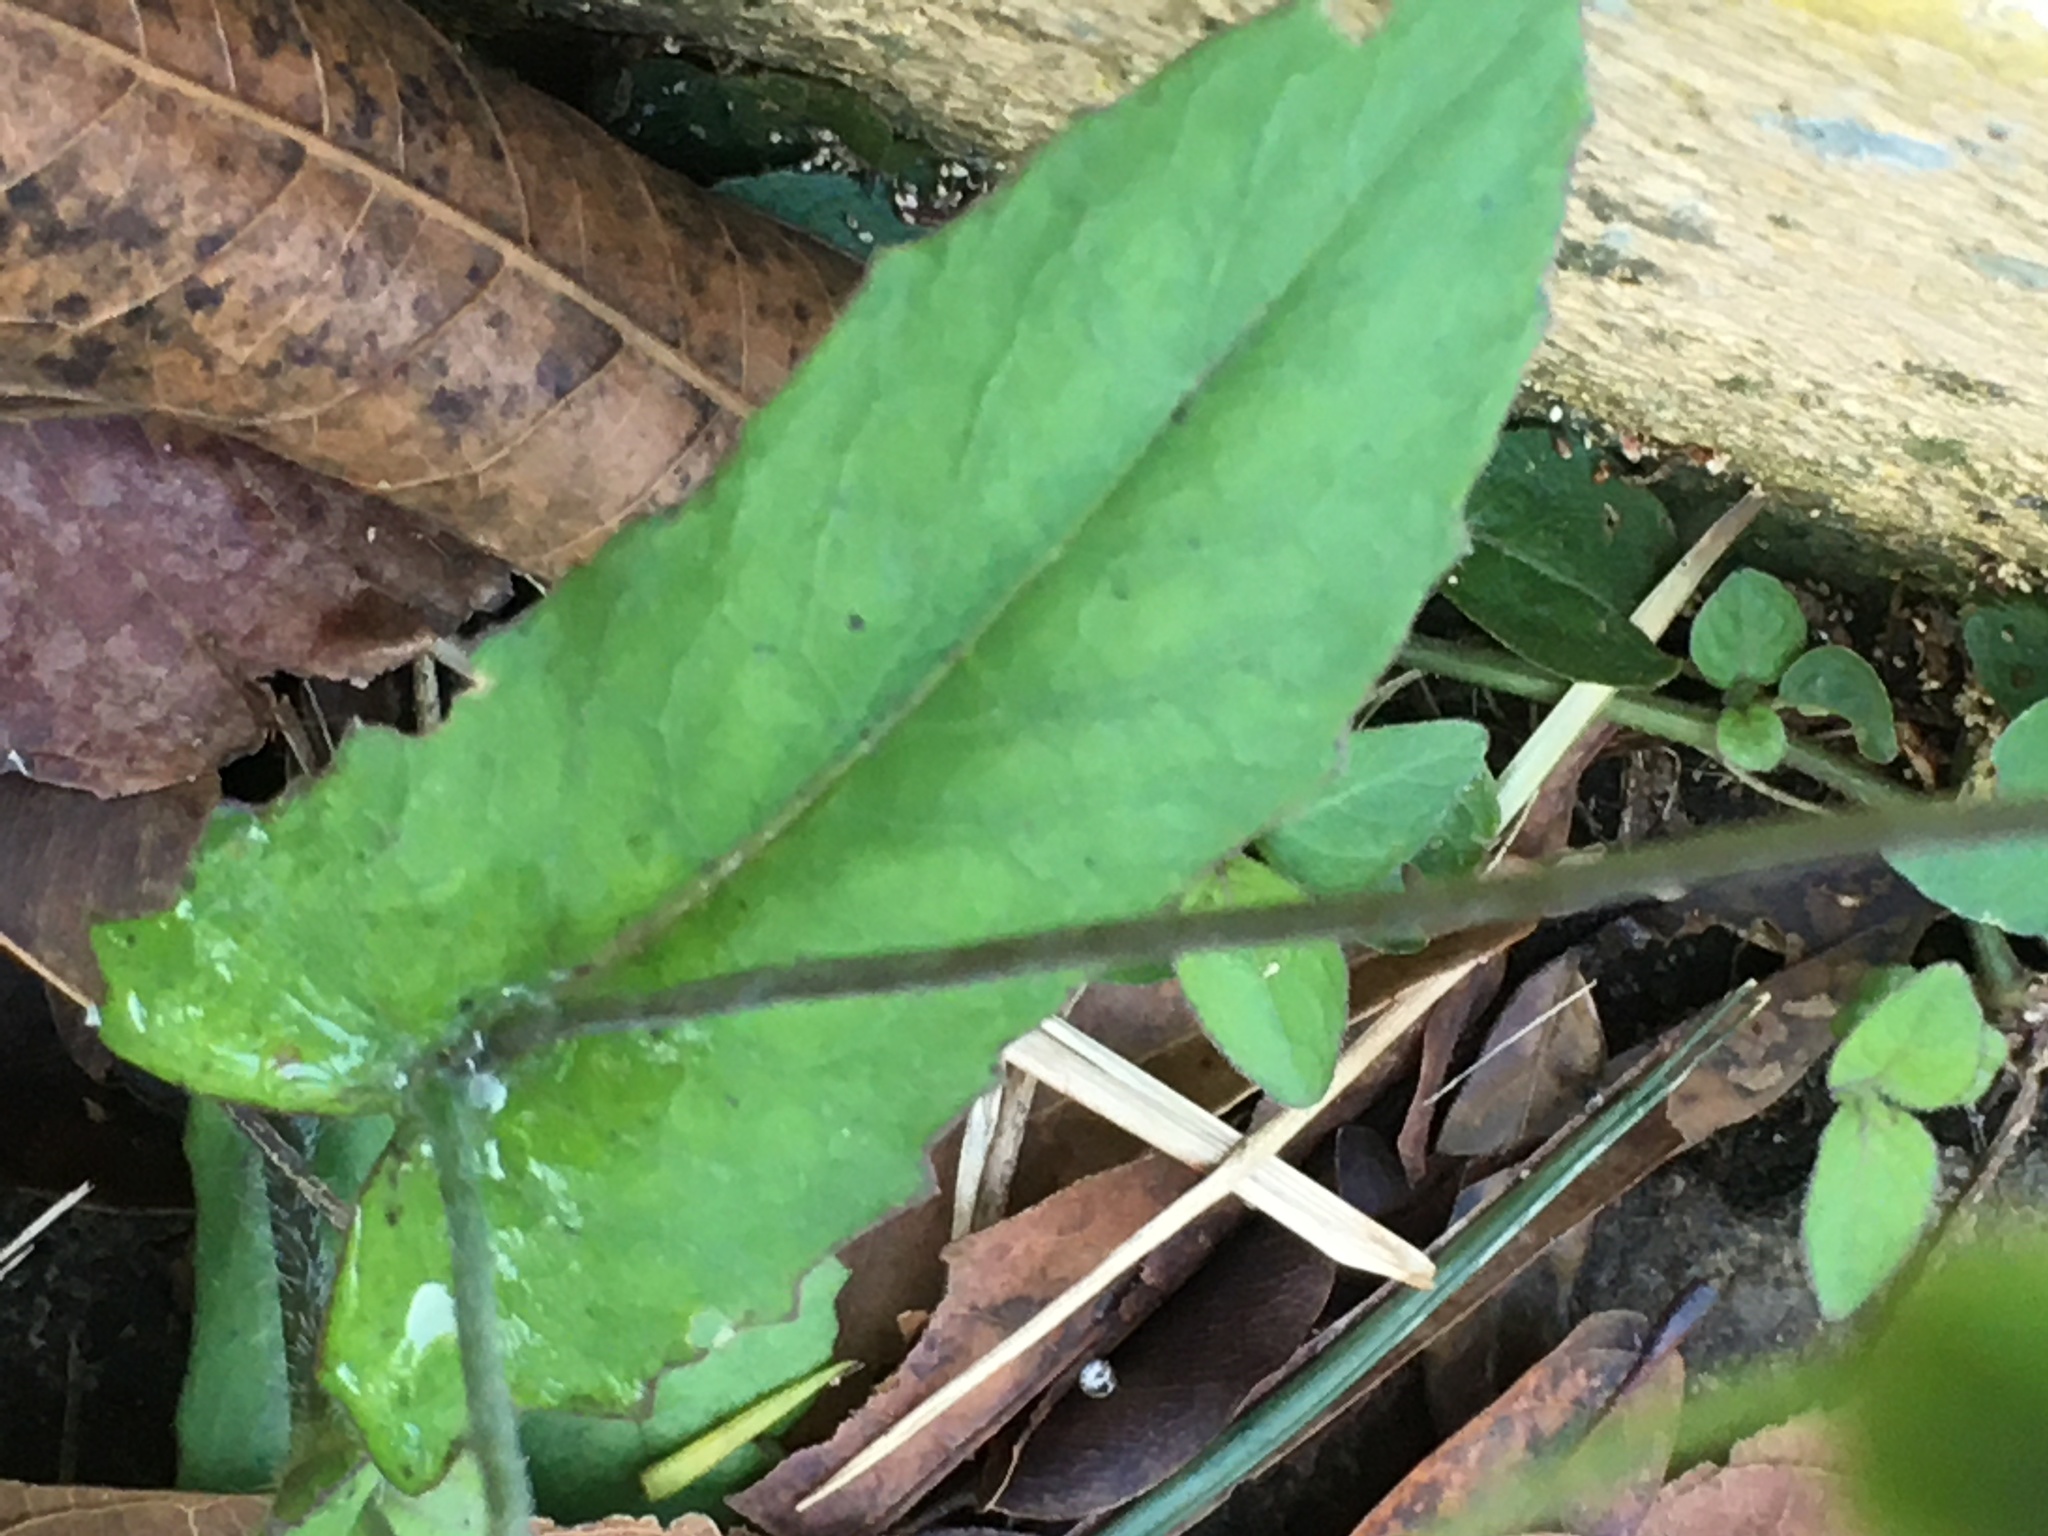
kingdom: Plantae
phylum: Tracheophyta
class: Magnoliopsida
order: Asterales
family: Asteraceae
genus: Emilia
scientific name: Emilia fosbergii
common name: Florida tasselflower
